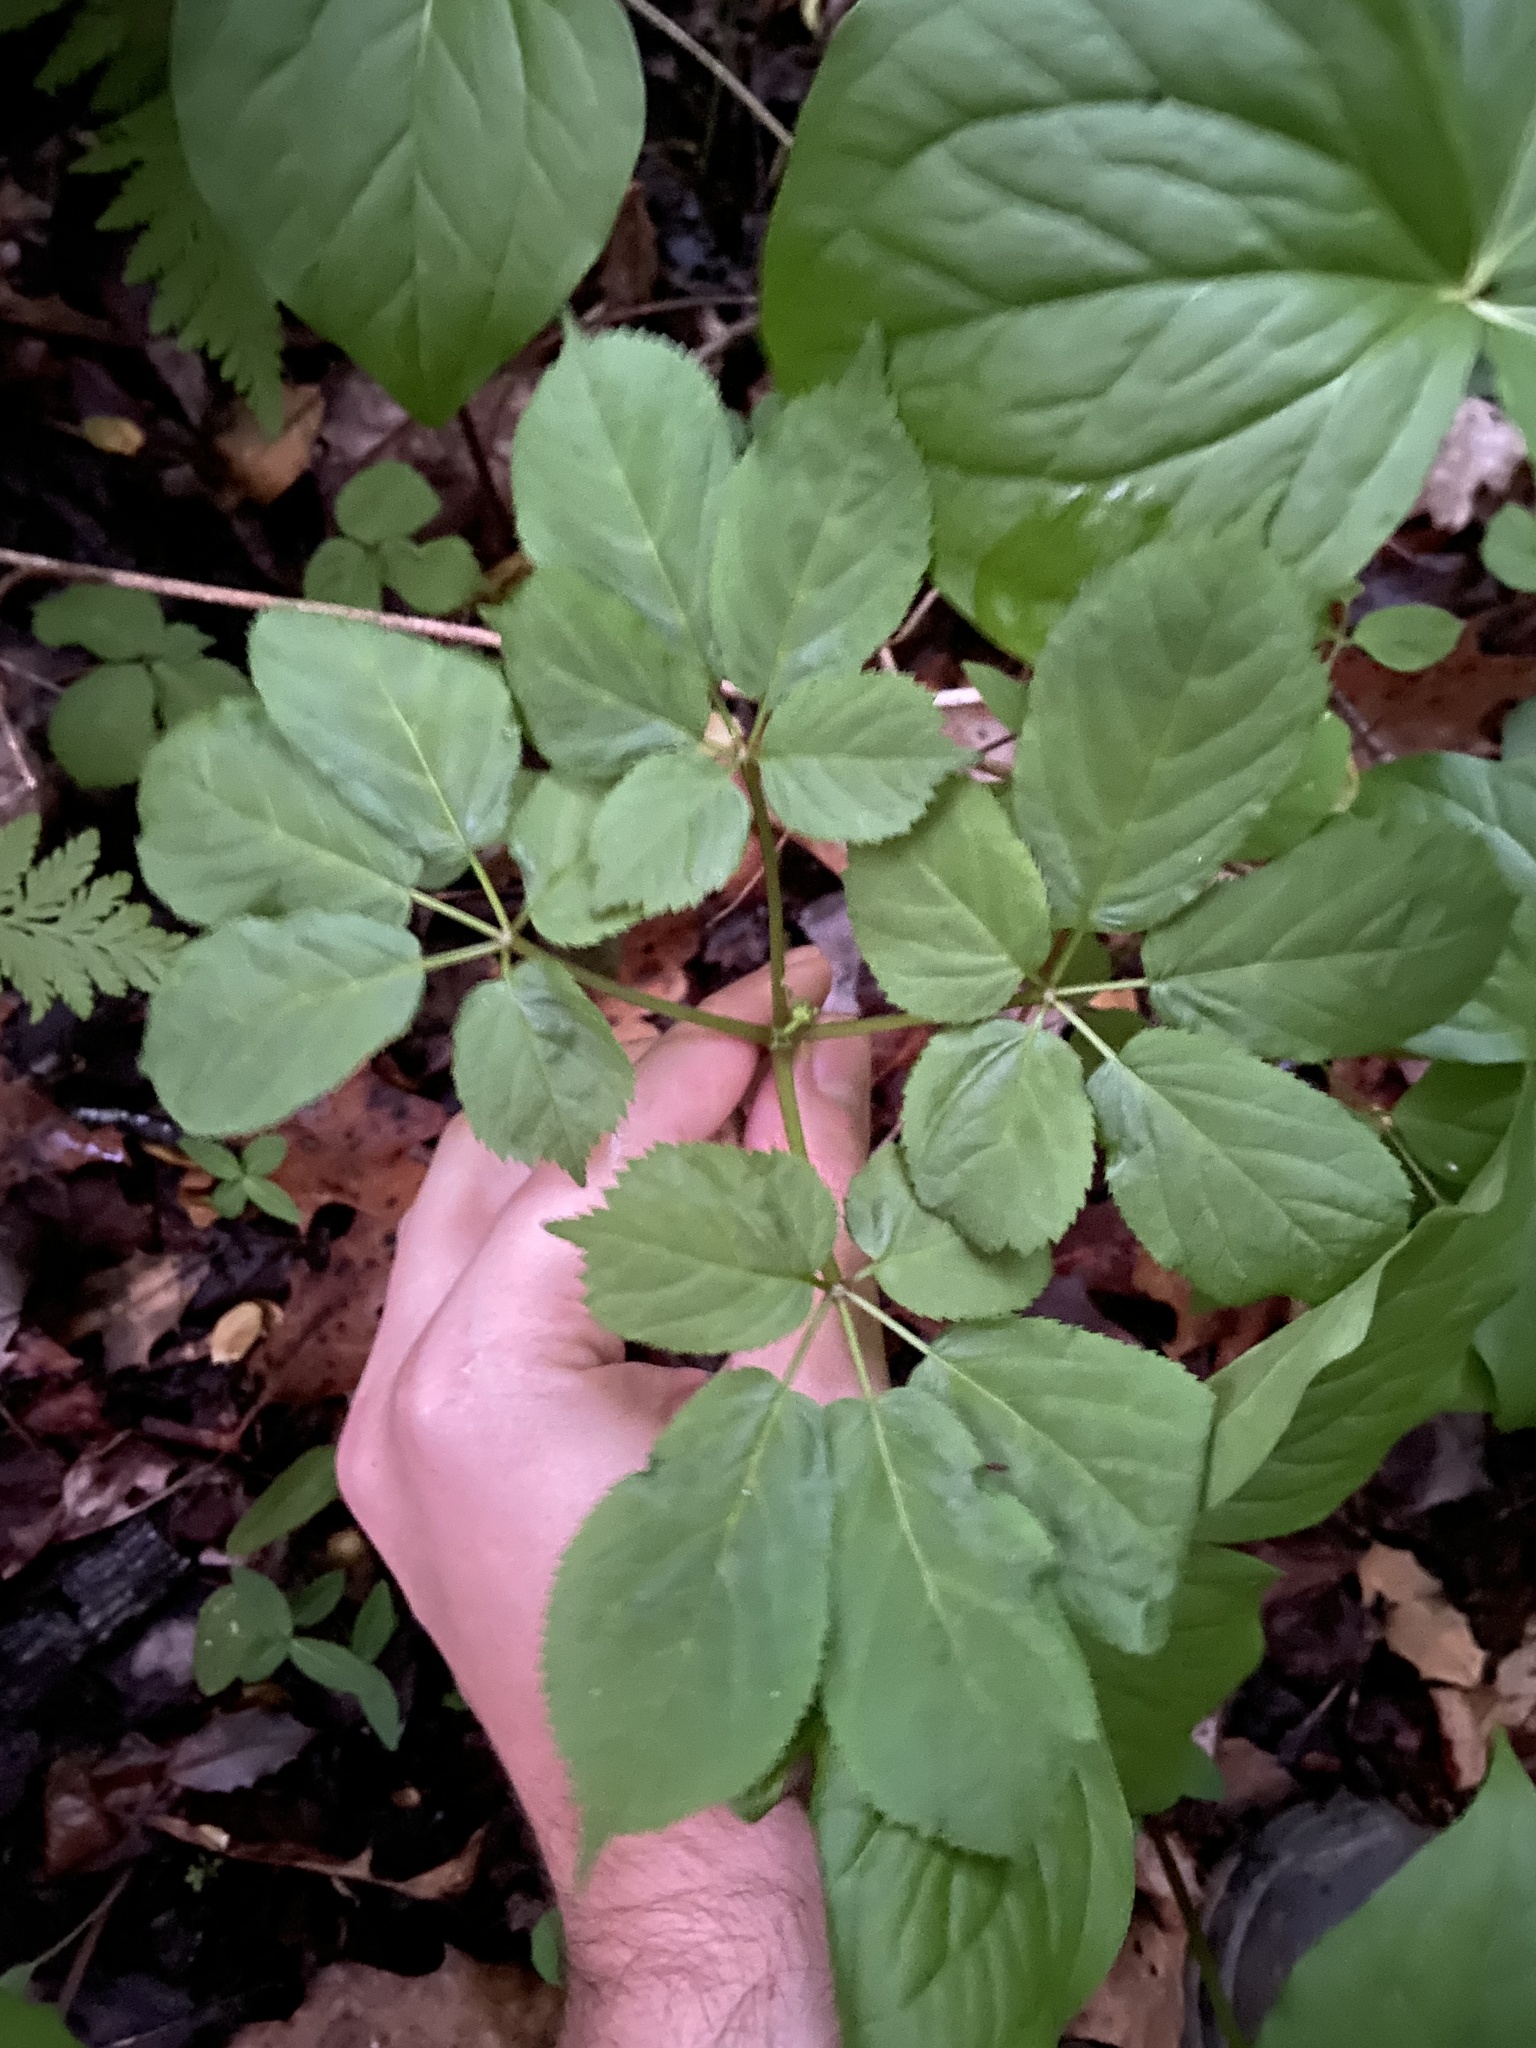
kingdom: Plantae
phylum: Tracheophyta
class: Magnoliopsida
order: Apiales
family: Araliaceae
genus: Panax
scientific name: Panax quinquefolius
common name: American ginseng
